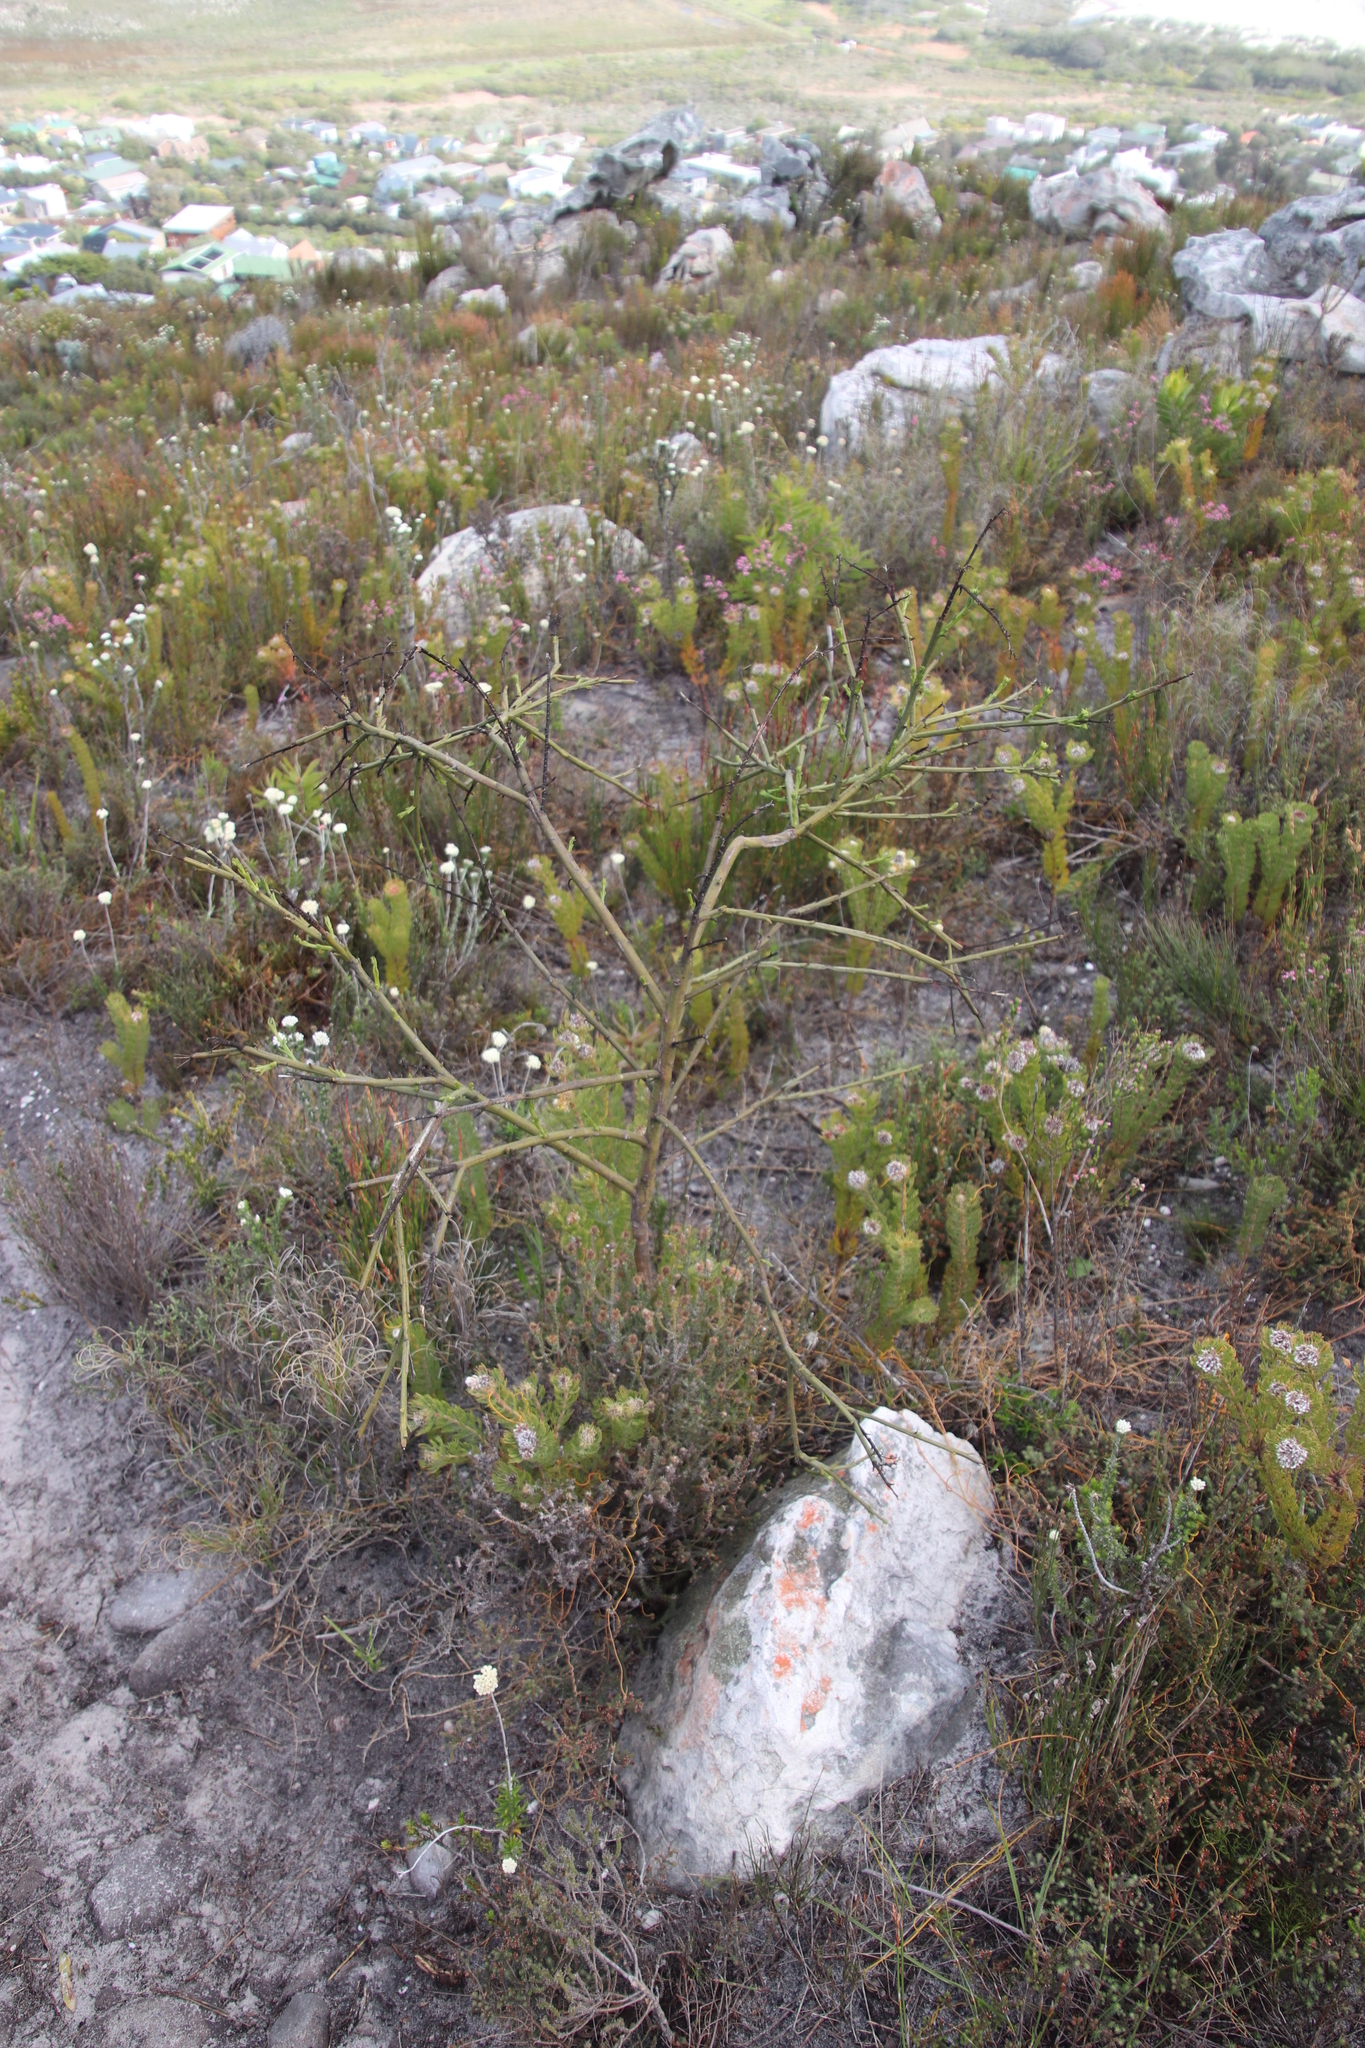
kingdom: Plantae
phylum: Tracheophyta
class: Magnoliopsida
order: Santalales
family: Thesiaceae
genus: Thesium
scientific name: Thesium strictum
